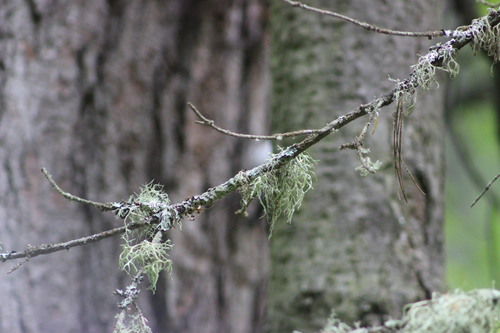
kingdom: Fungi
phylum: Ascomycota
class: Lecanoromycetes
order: Lecanorales
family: Parmeliaceae
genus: Evernia
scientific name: Evernia mesomorpha
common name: Boreal oak moss lichen
